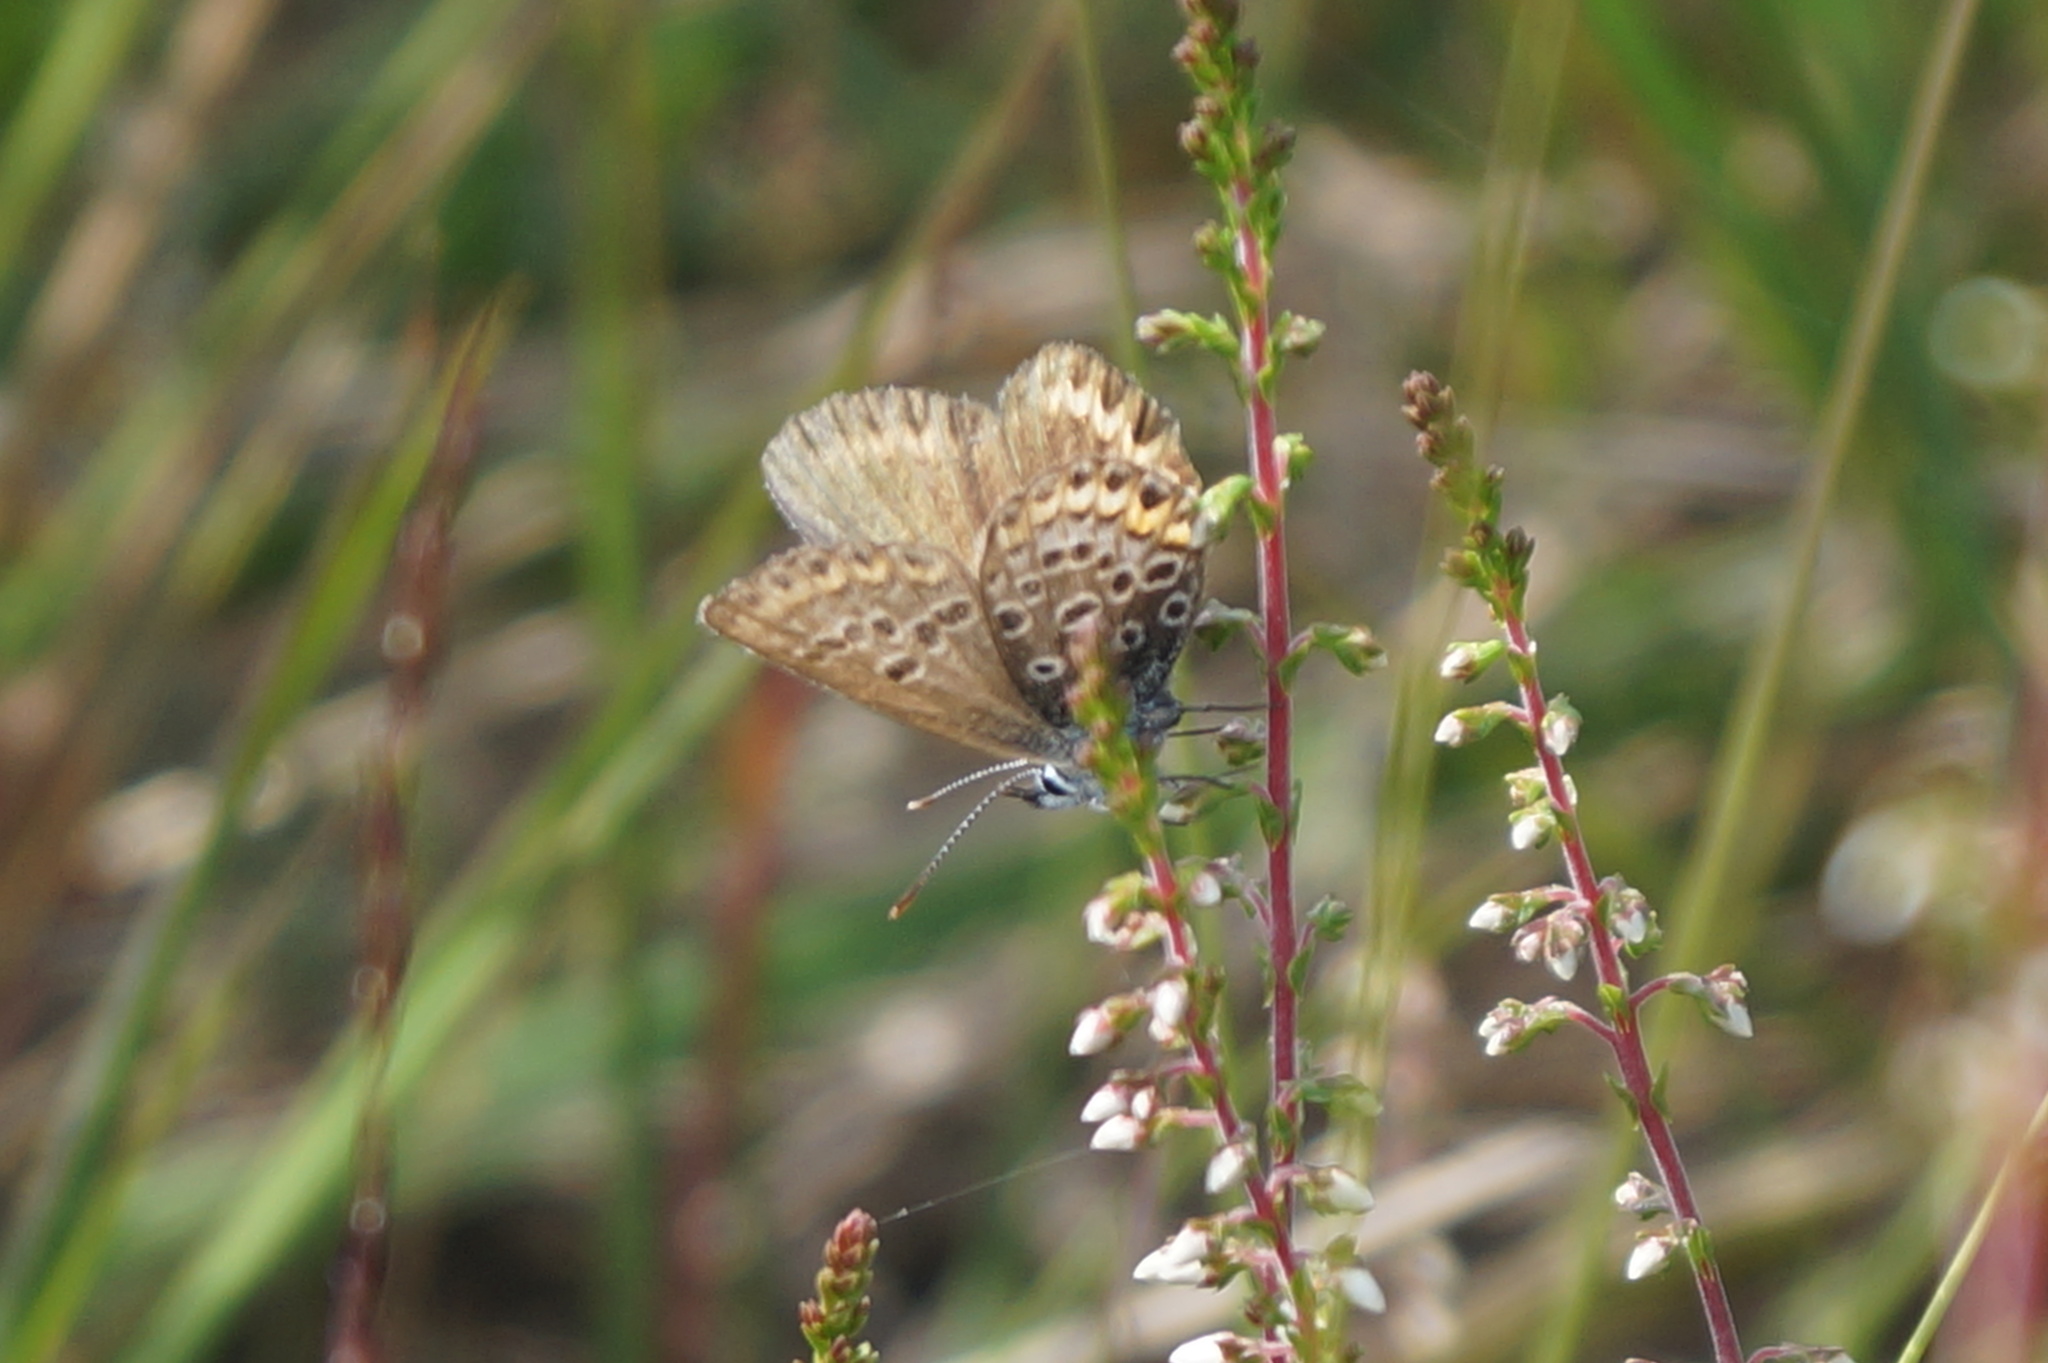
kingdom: Animalia
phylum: Arthropoda
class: Insecta
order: Lepidoptera
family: Lycaenidae
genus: Plebejus
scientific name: Plebejus argus
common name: Silver-studded blue
